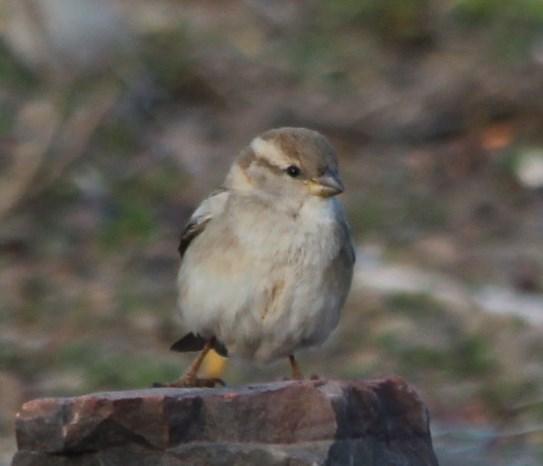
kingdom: Animalia
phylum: Chordata
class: Aves
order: Passeriformes
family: Passeridae
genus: Passer
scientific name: Passer domesticus
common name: House sparrow
